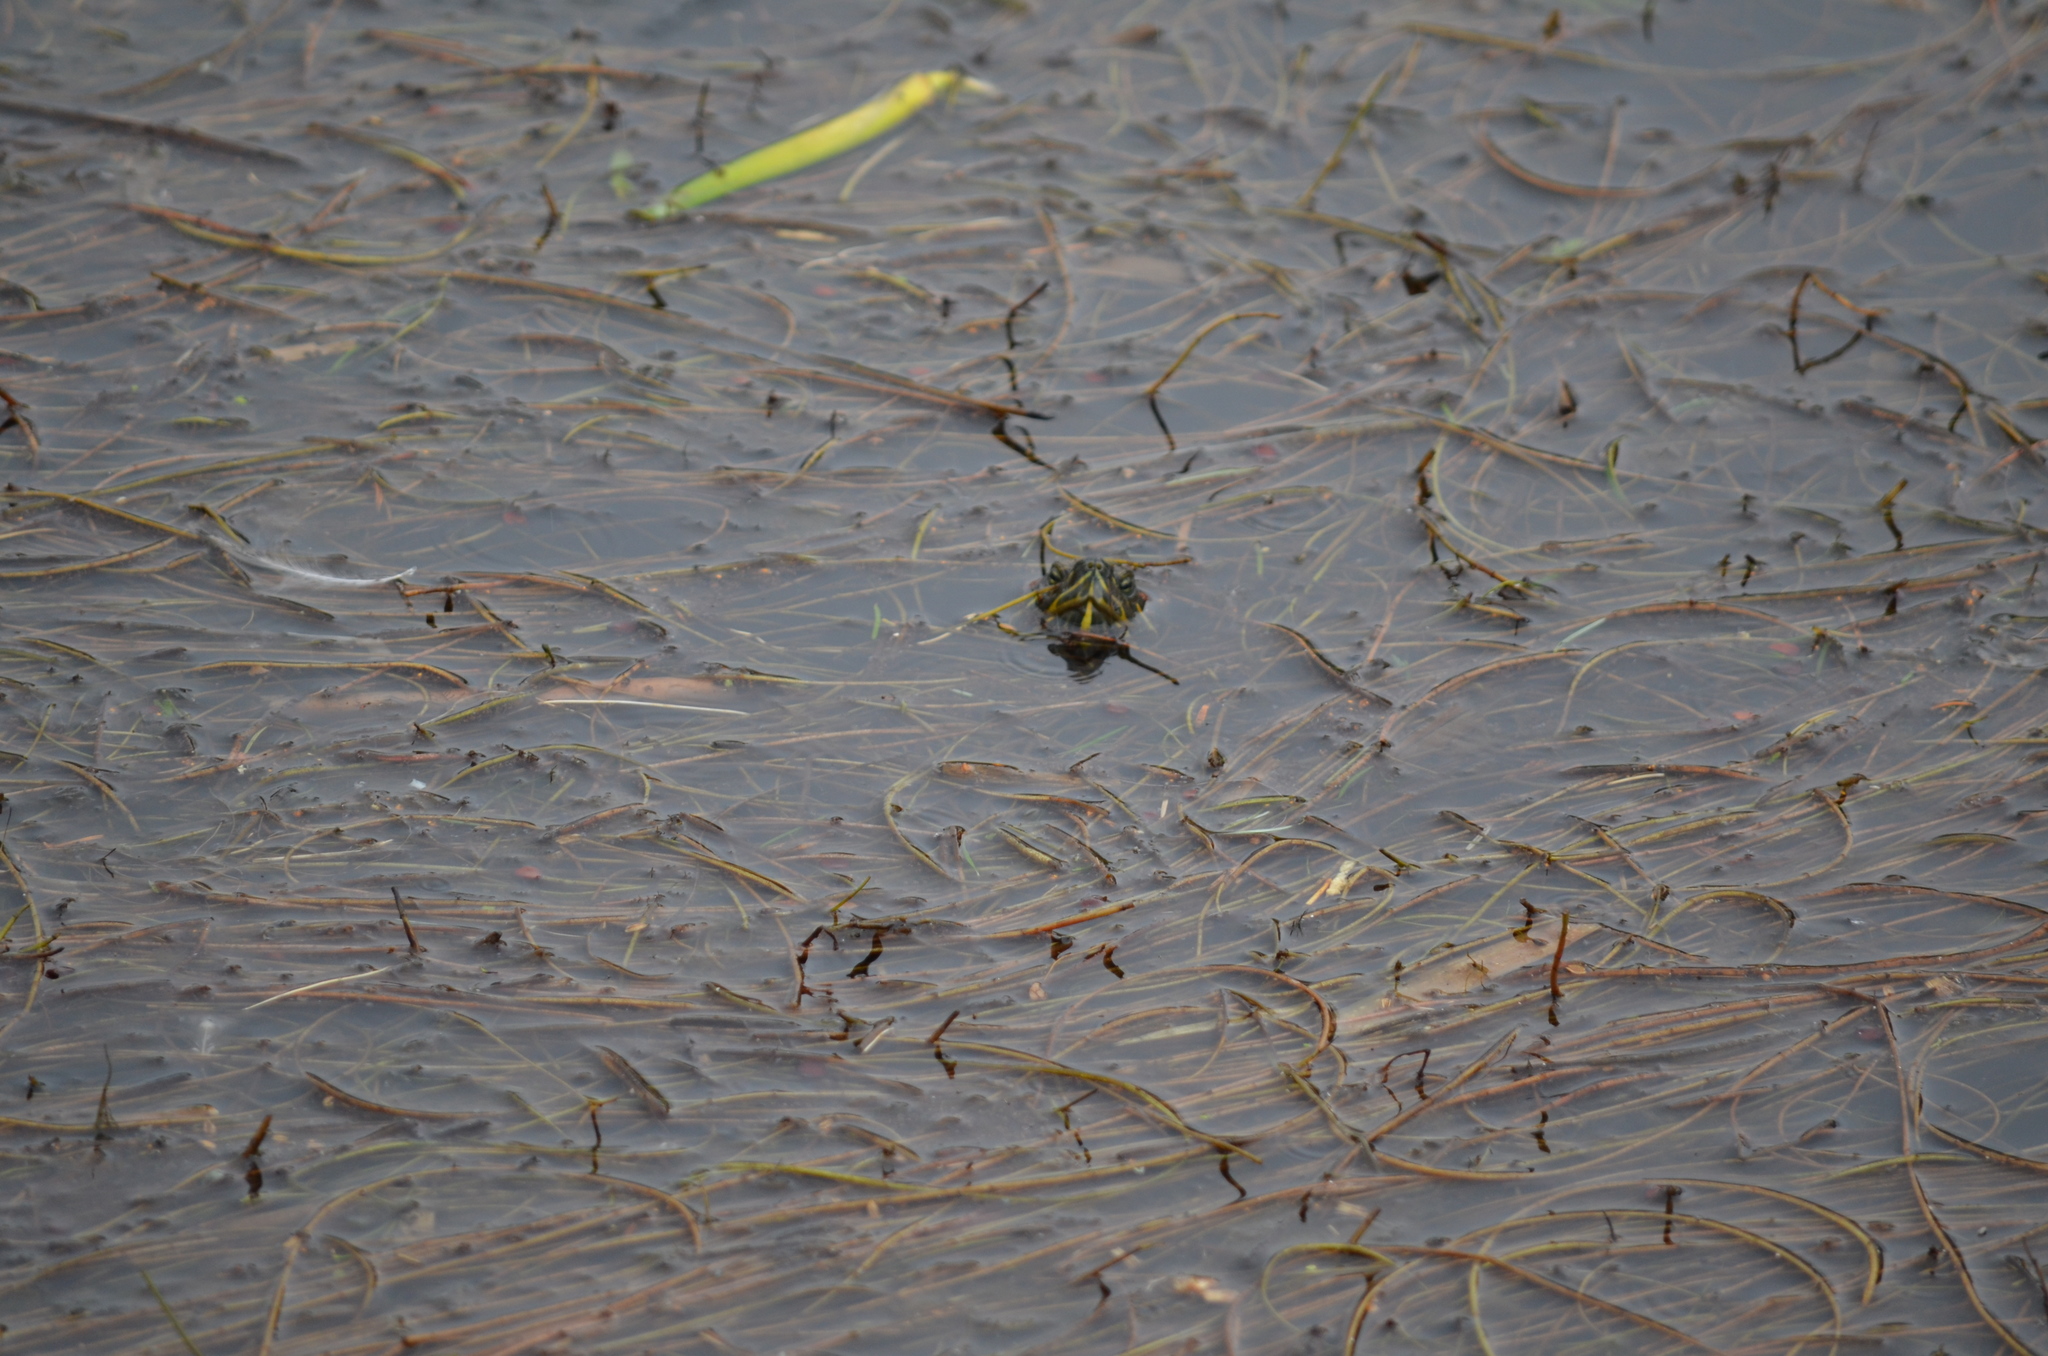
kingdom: Animalia
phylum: Chordata
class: Testudines
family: Emydidae
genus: Trachemys
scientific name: Trachemys scripta
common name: Slider
